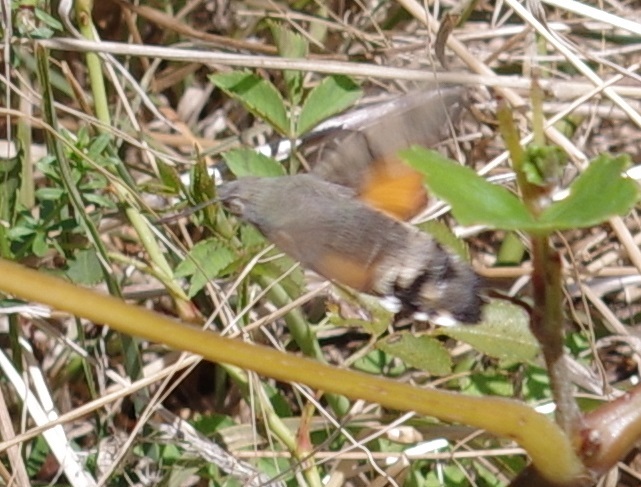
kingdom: Animalia
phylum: Arthropoda
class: Insecta
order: Lepidoptera
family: Sphingidae
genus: Macroglossum
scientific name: Macroglossum stellatarum
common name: Humming-bird hawk-moth
